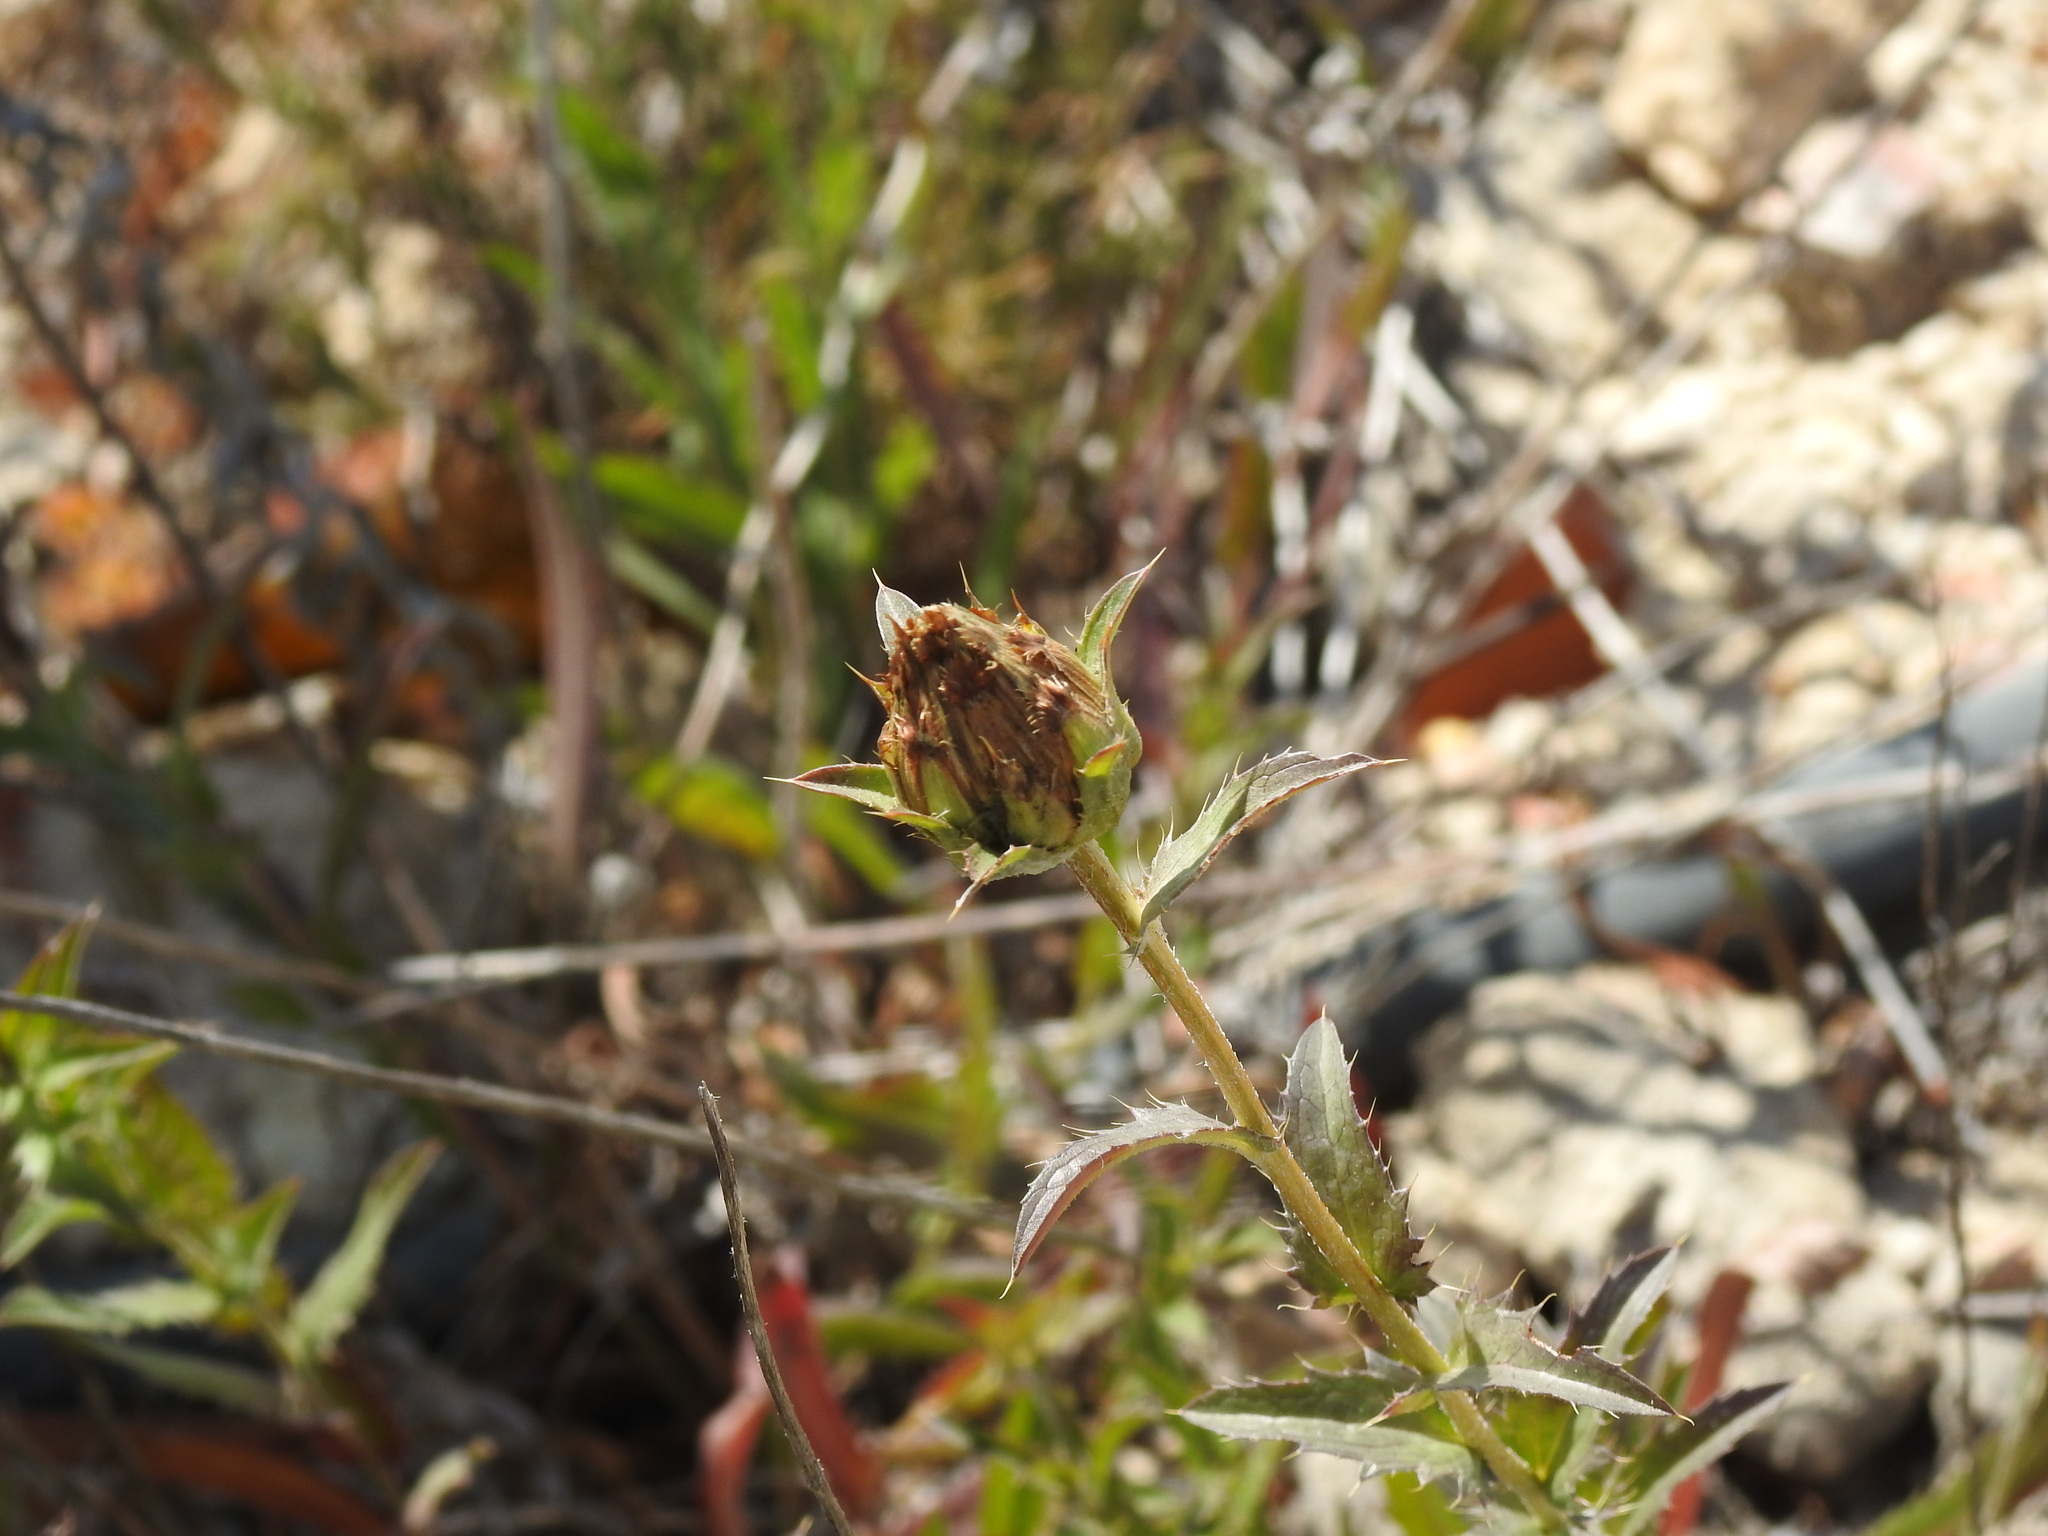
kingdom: Plantae
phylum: Tracheophyta
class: Magnoliopsida
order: Asterales
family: Asteraceae
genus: Carduncellus
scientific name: Carduncellus caeruleus
